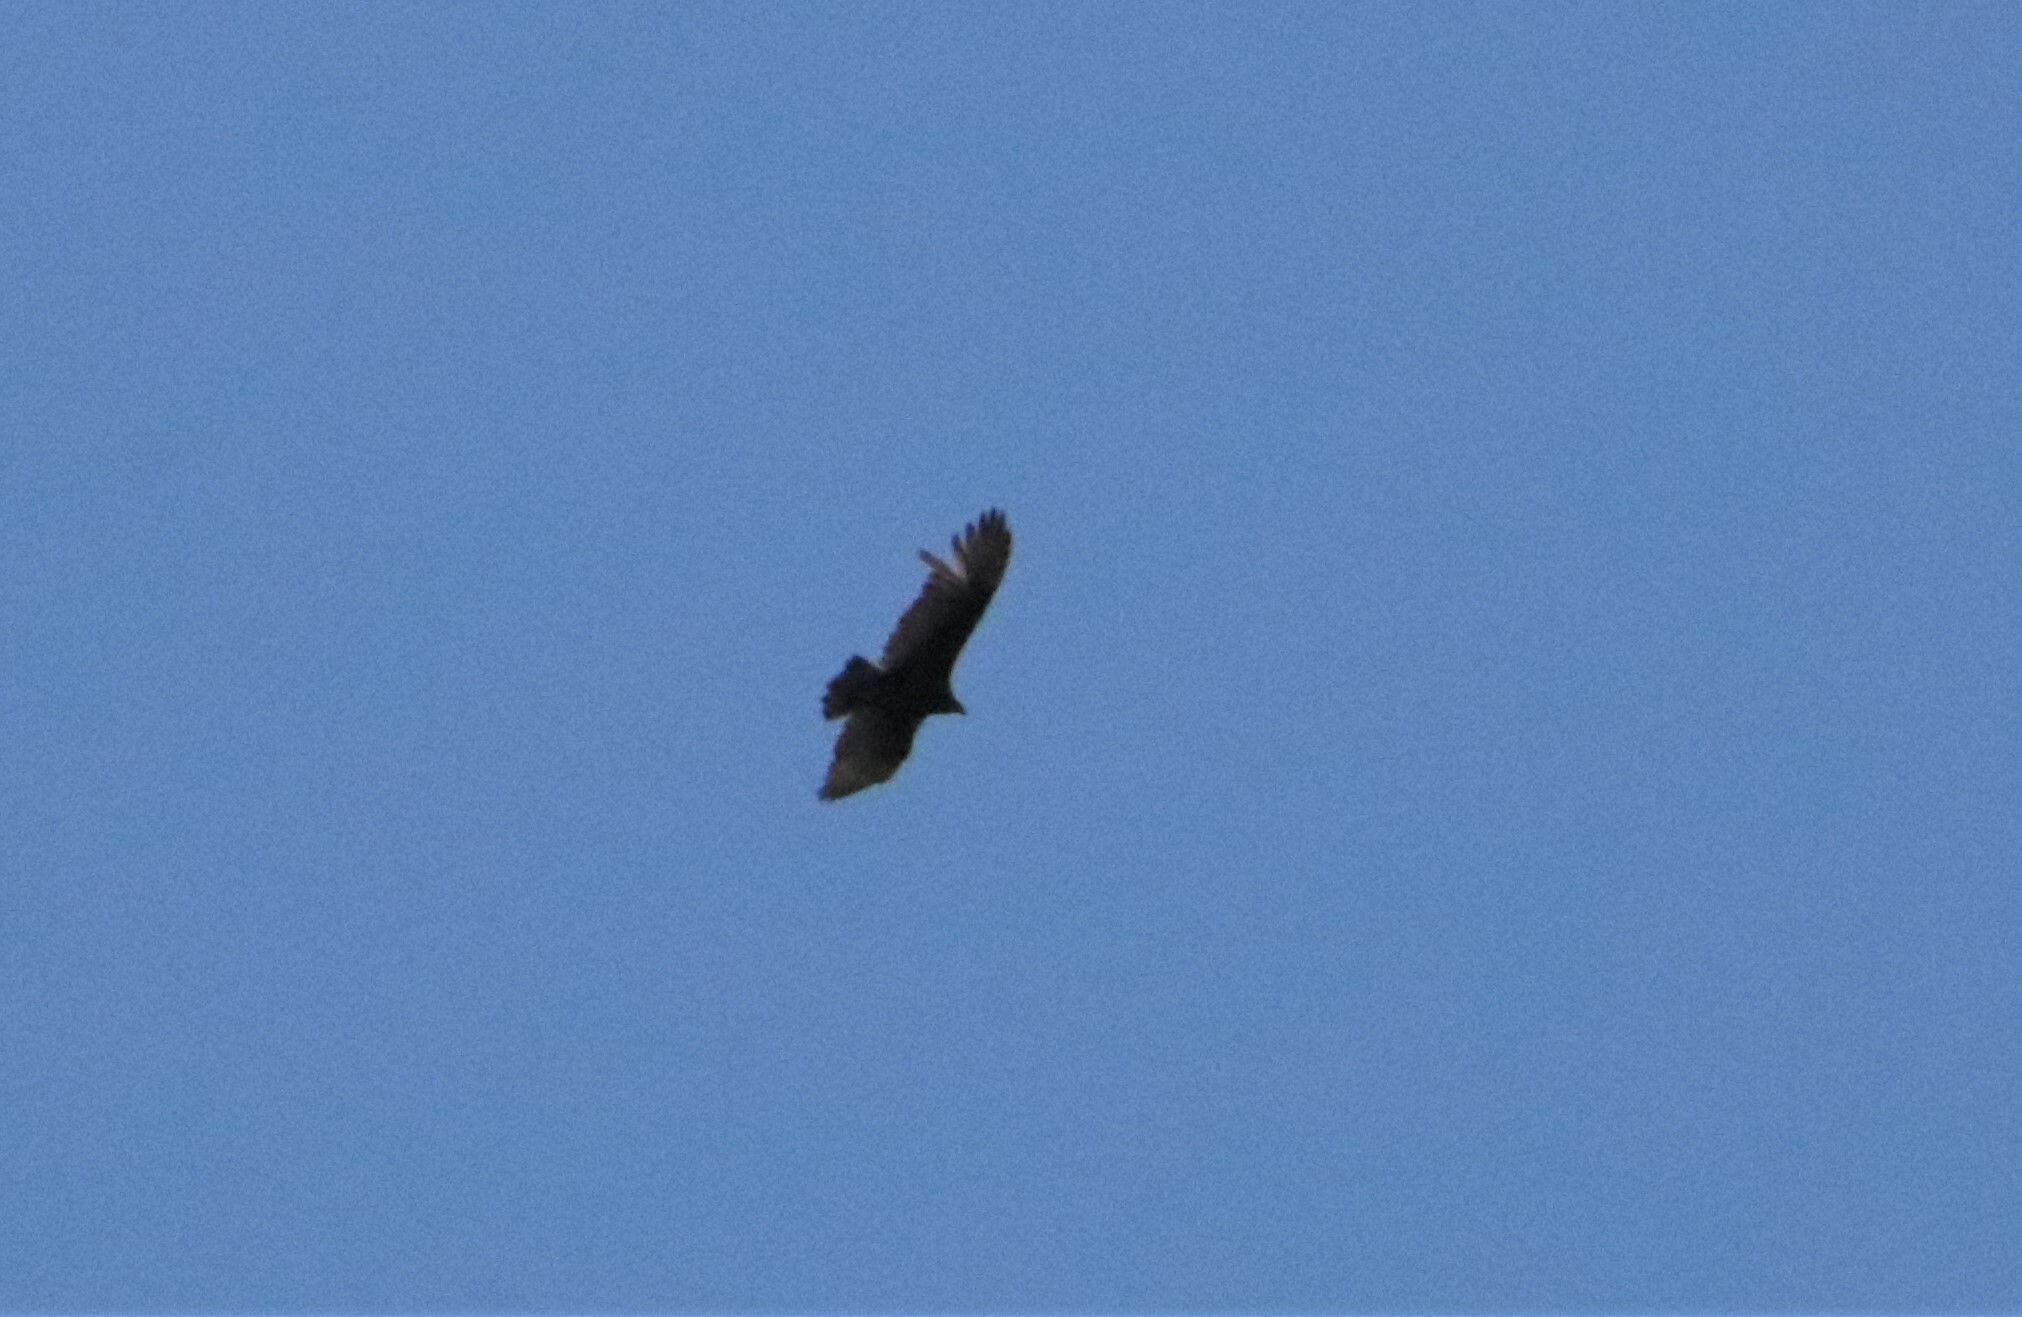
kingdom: Animalia
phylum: Chordata
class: Aves
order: Accipitriformes
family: Cathartidae
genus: Cathartes
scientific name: Cathartes aura
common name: Turkey vulture
